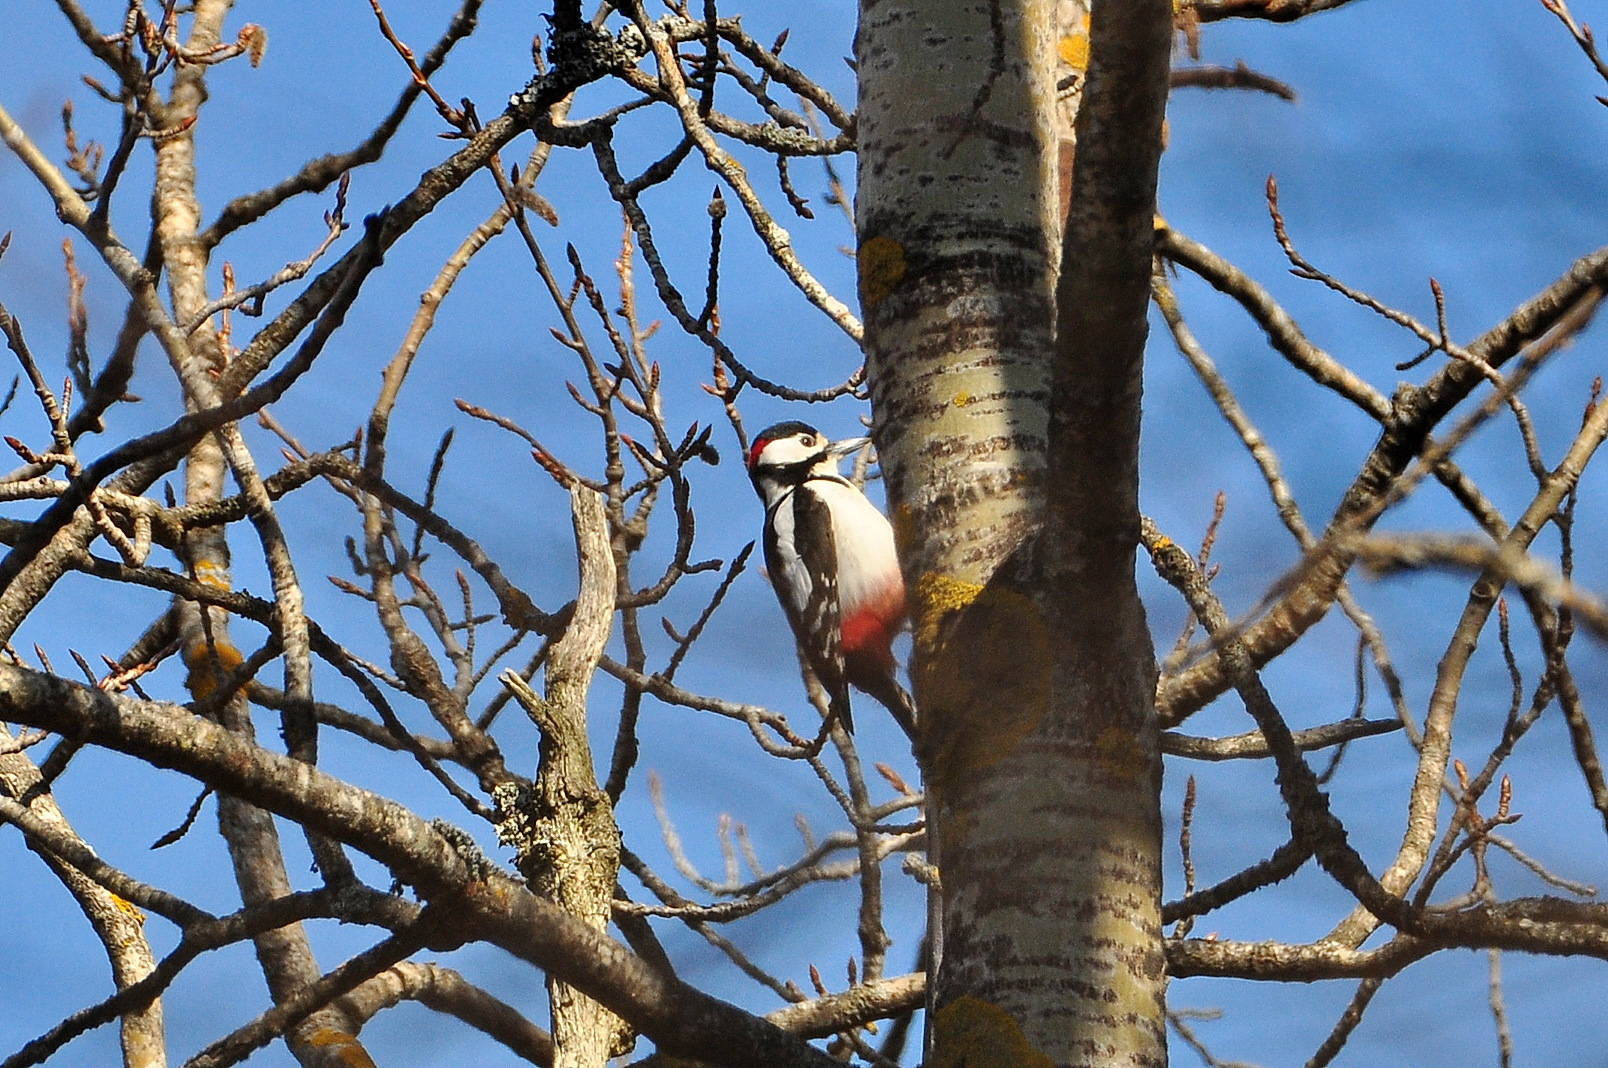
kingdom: Animalia
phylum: Chordata
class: Aves
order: Piciformes
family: Picidae
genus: Dendrocopos
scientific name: Dendrocopos major
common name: Great spotted woodpecker
